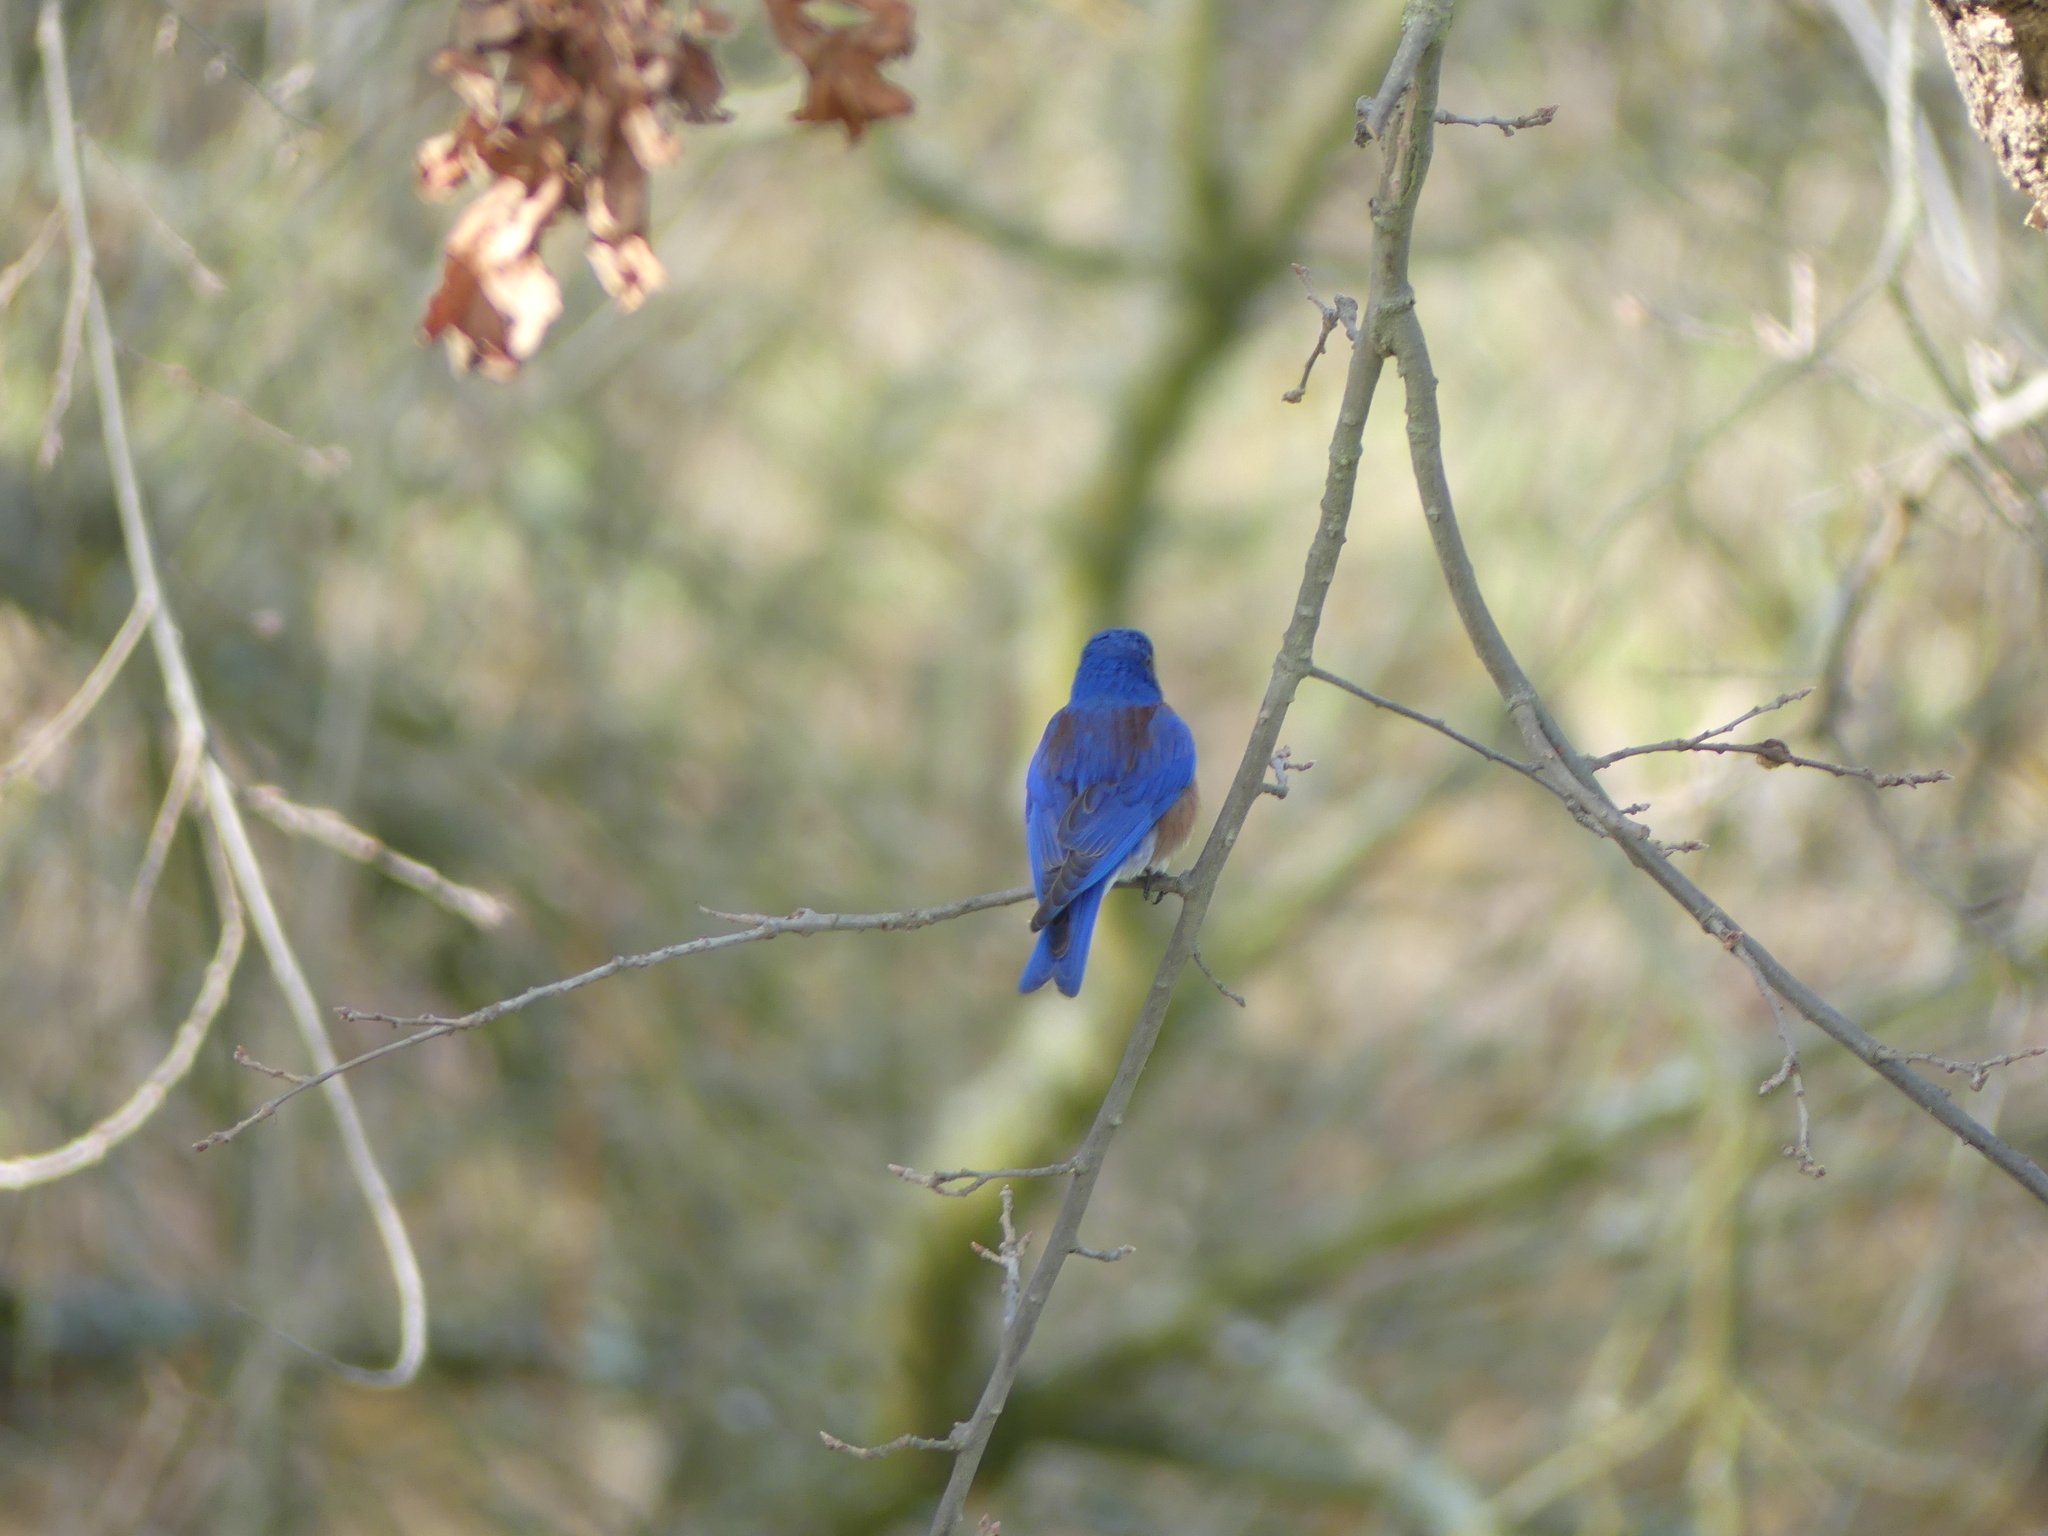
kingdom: Animalia
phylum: Chordata
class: Aves
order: Passeriformes
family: Turdidae
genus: Sialia
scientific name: Sialia mexicana
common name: Western bluebird
